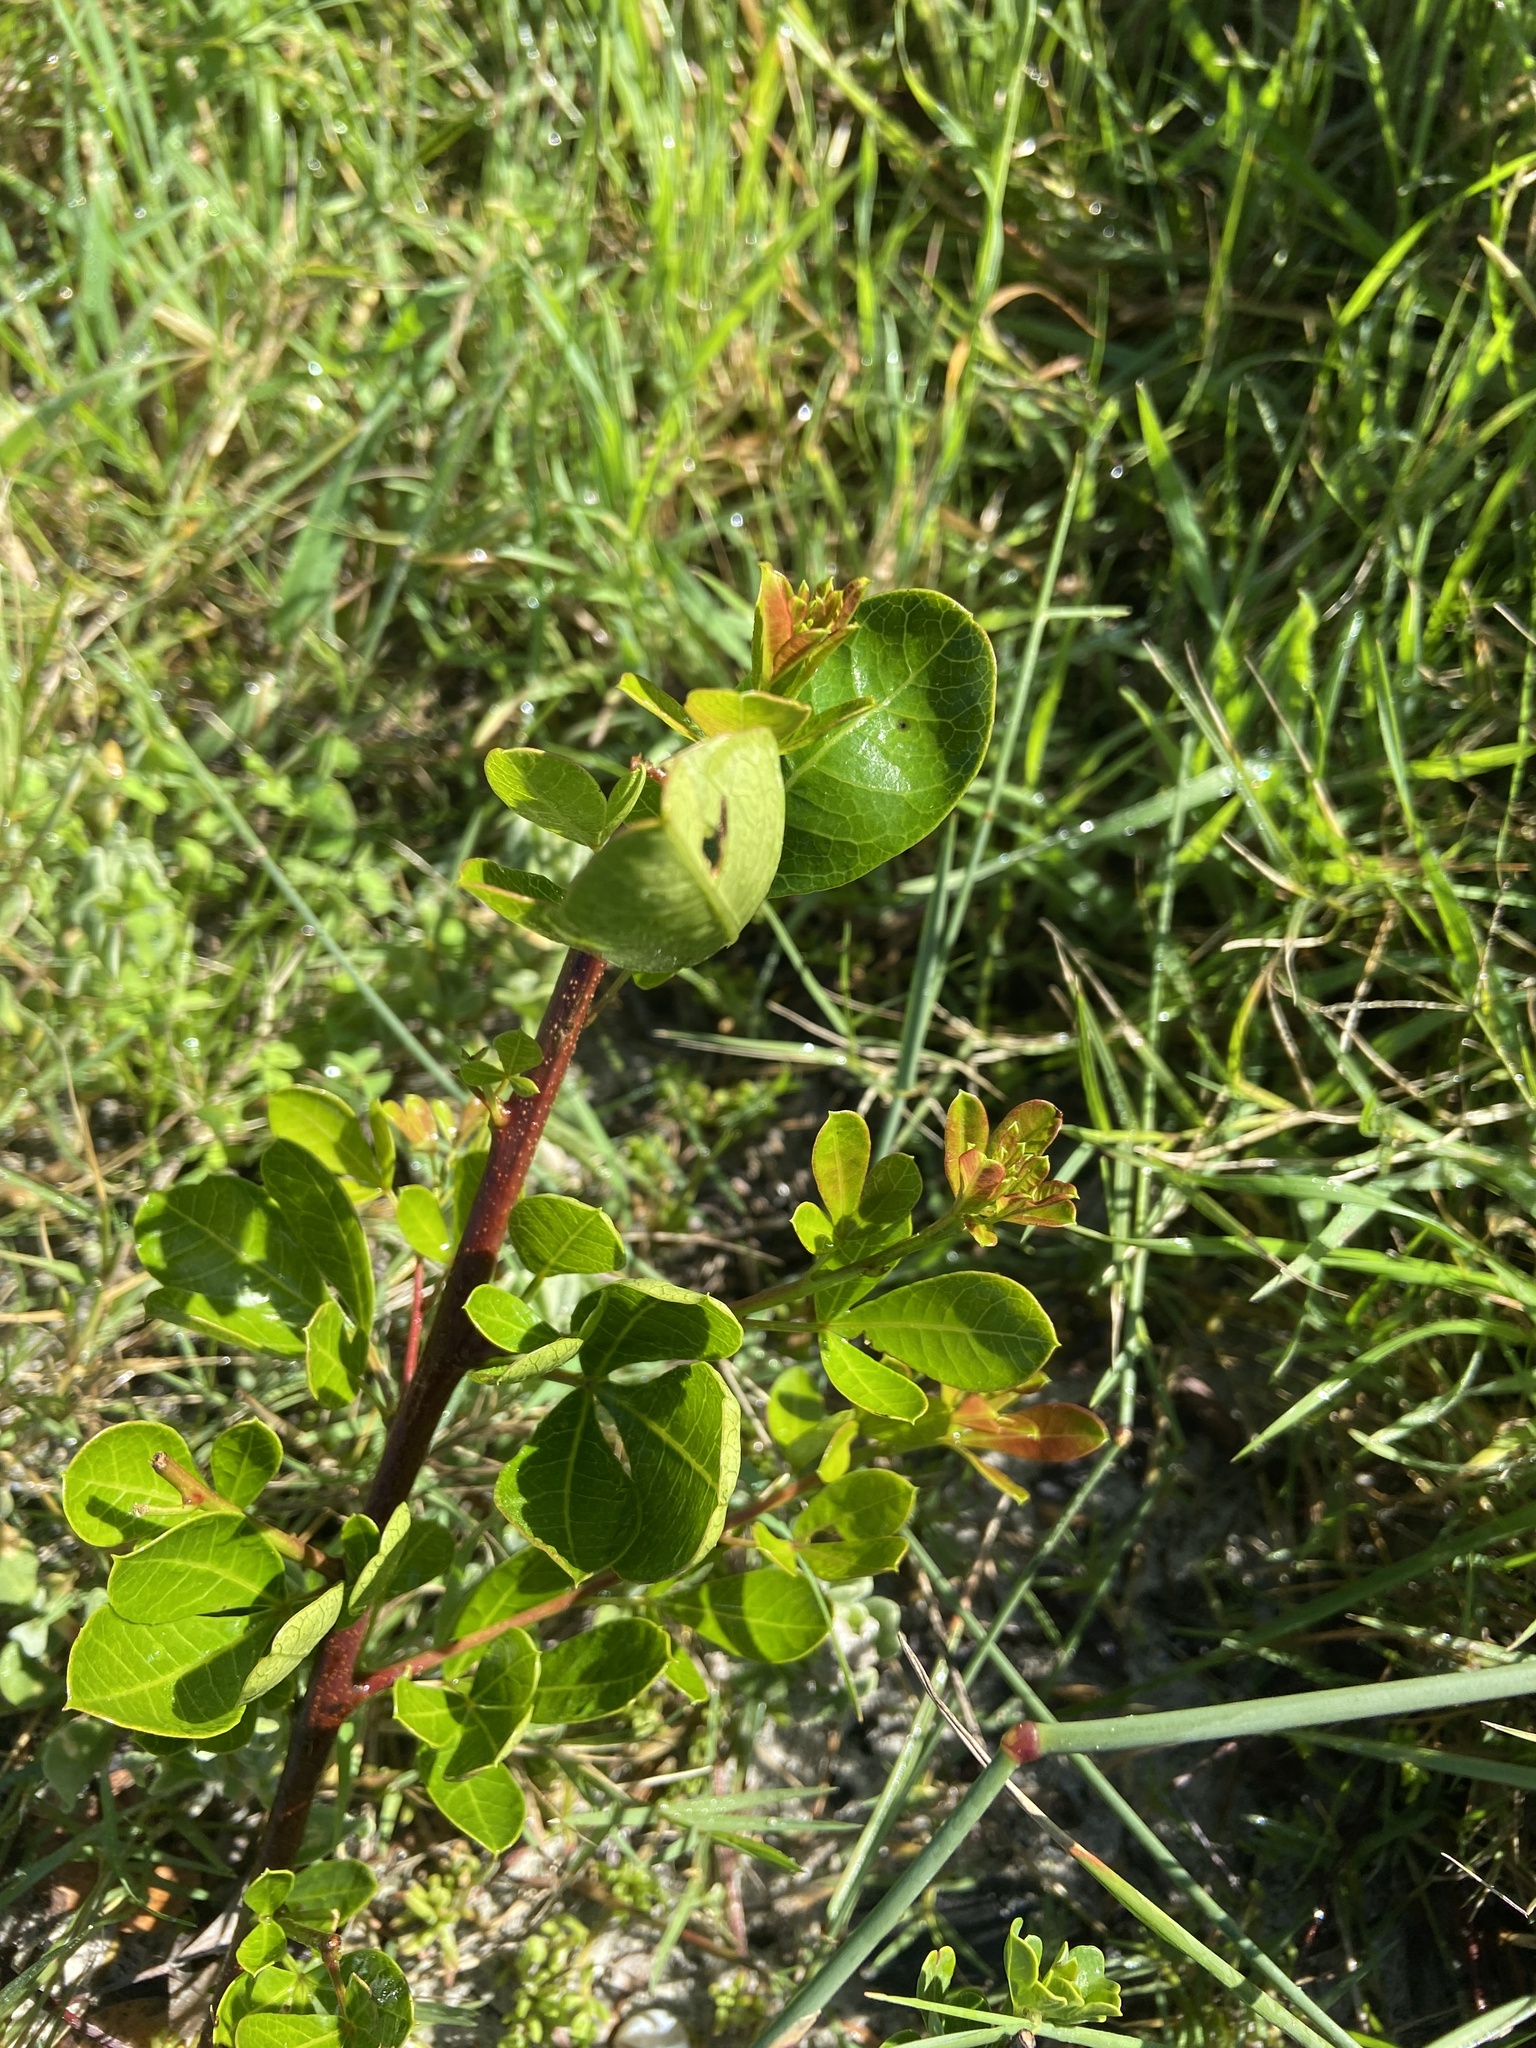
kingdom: Plantae
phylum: Tracheophyta
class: Magnoliopsida
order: Sapindales
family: Anacardiaceae
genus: Searsia
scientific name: Searsia laevigata
